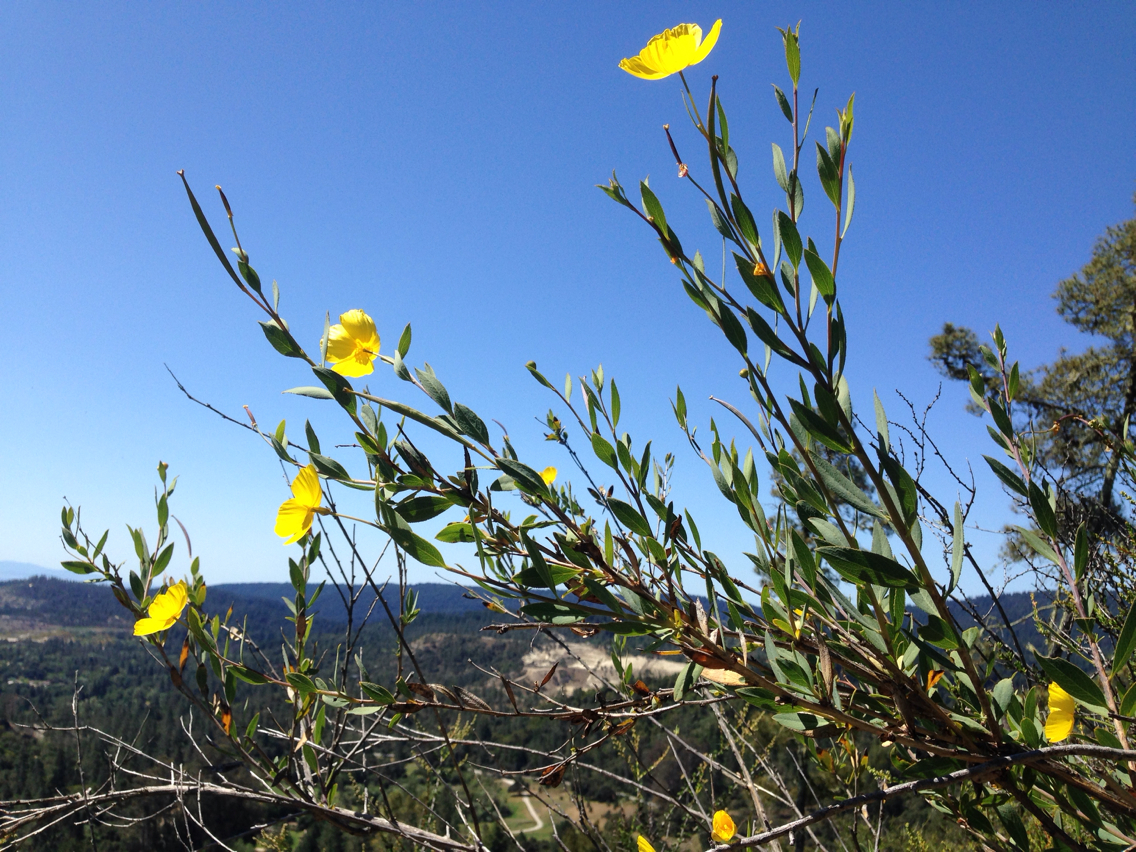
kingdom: Plantae
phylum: Tracheophyta
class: Magnoliopsida
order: Ranunculales
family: Papaveraceae
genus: Dendromecon
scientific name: Dendromecon rigida
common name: Tree poppy
